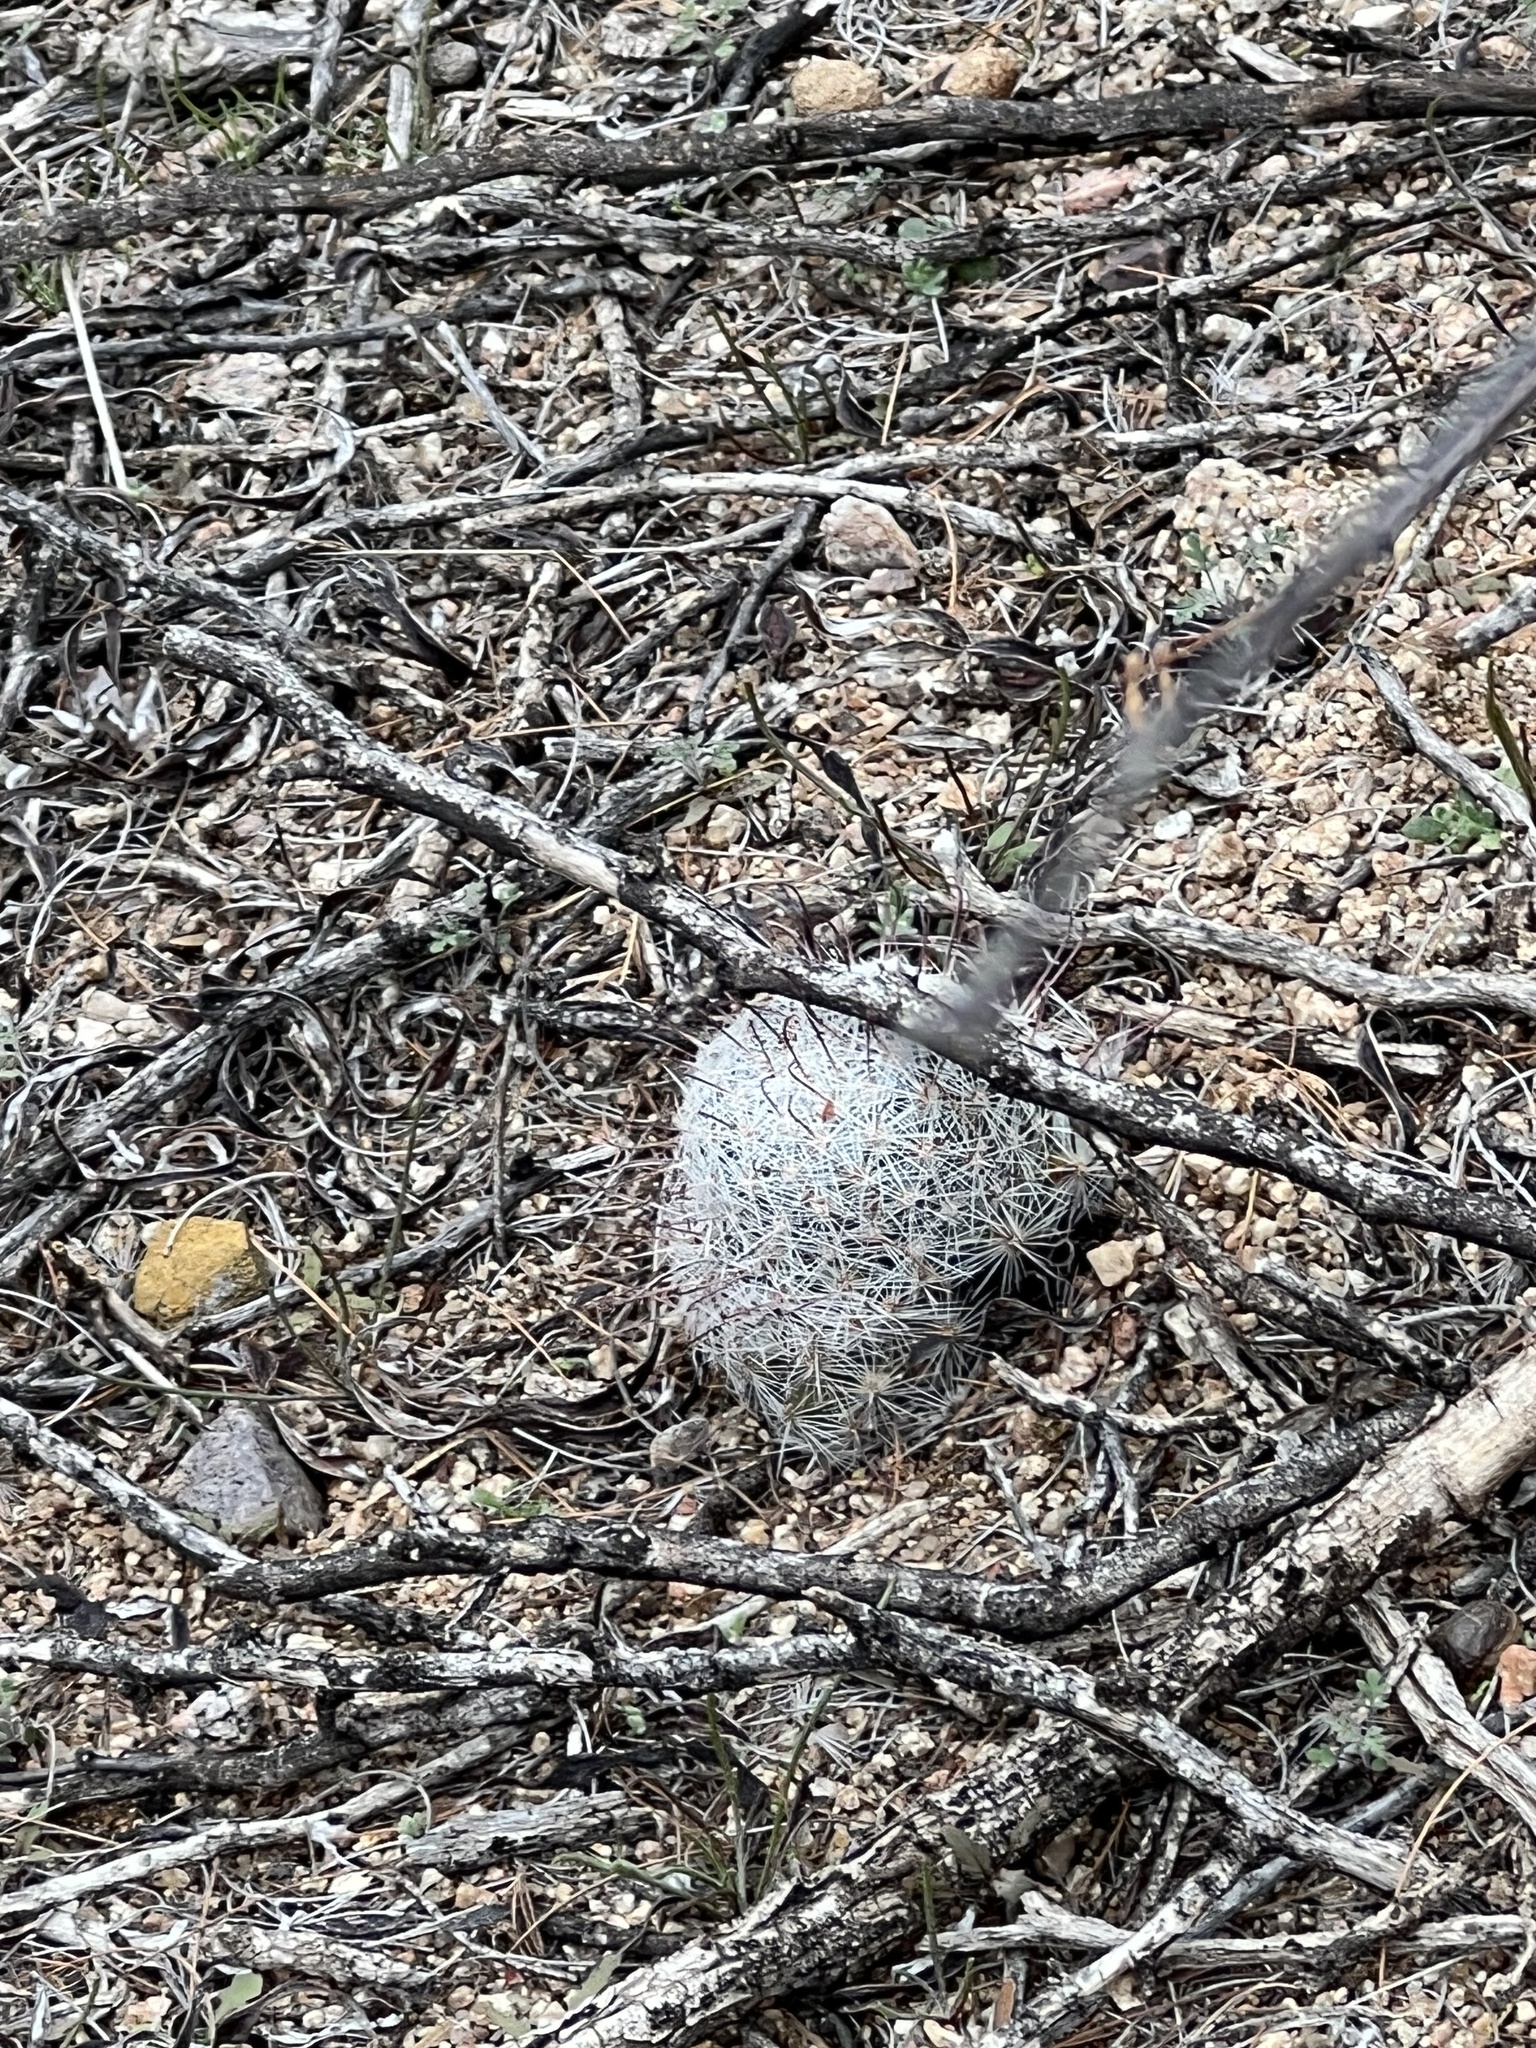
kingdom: Plantae
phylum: Tracheophyta
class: Magnoliopsida
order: Caryophyllales
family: Cactaceae
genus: Cochemiea
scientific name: Cochemiea grahamii
